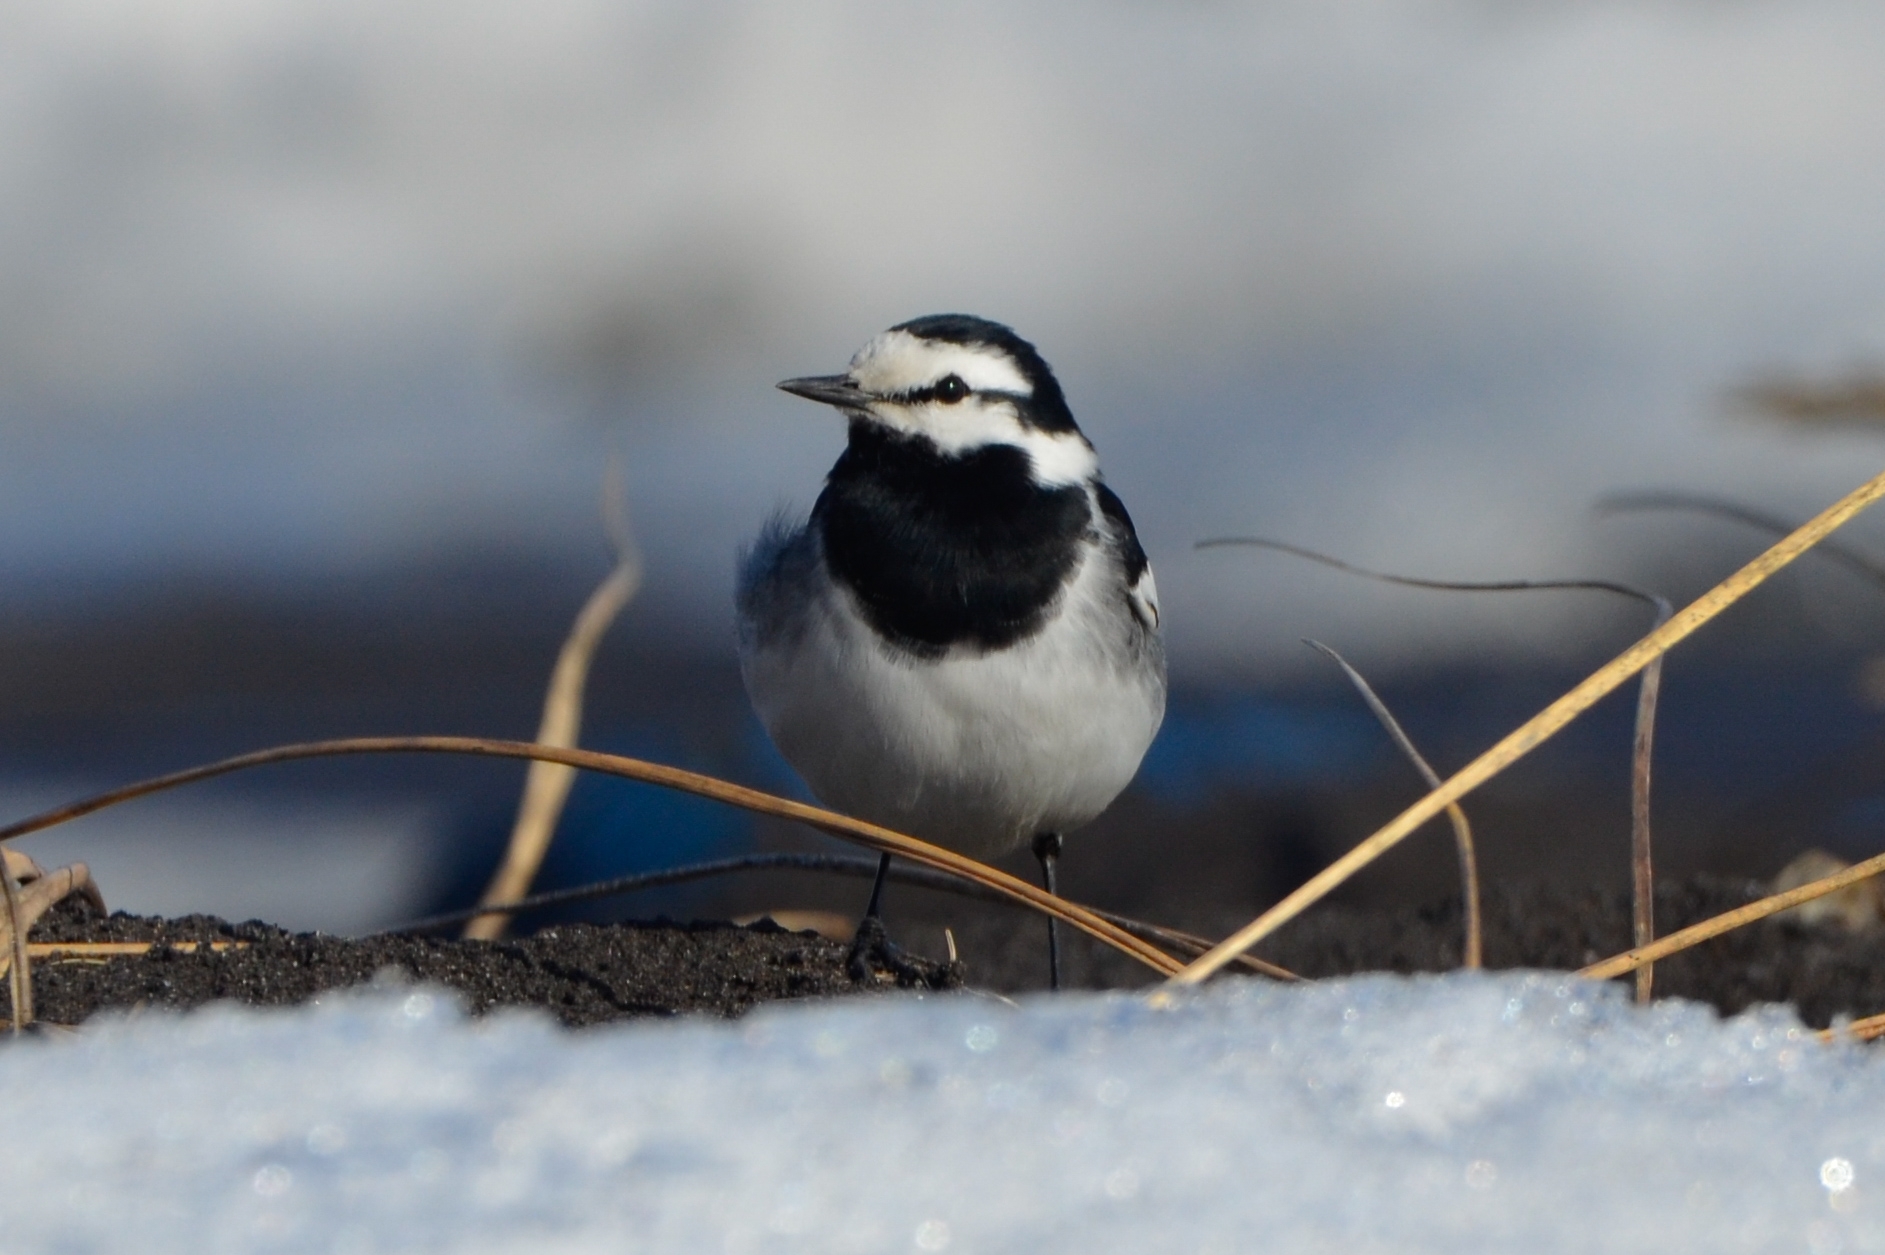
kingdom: Animalia
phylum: Chordata
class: Aves
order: Passeriformes
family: Motacillidae
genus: Motacilla
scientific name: Motacilla alba
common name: White wagtail
